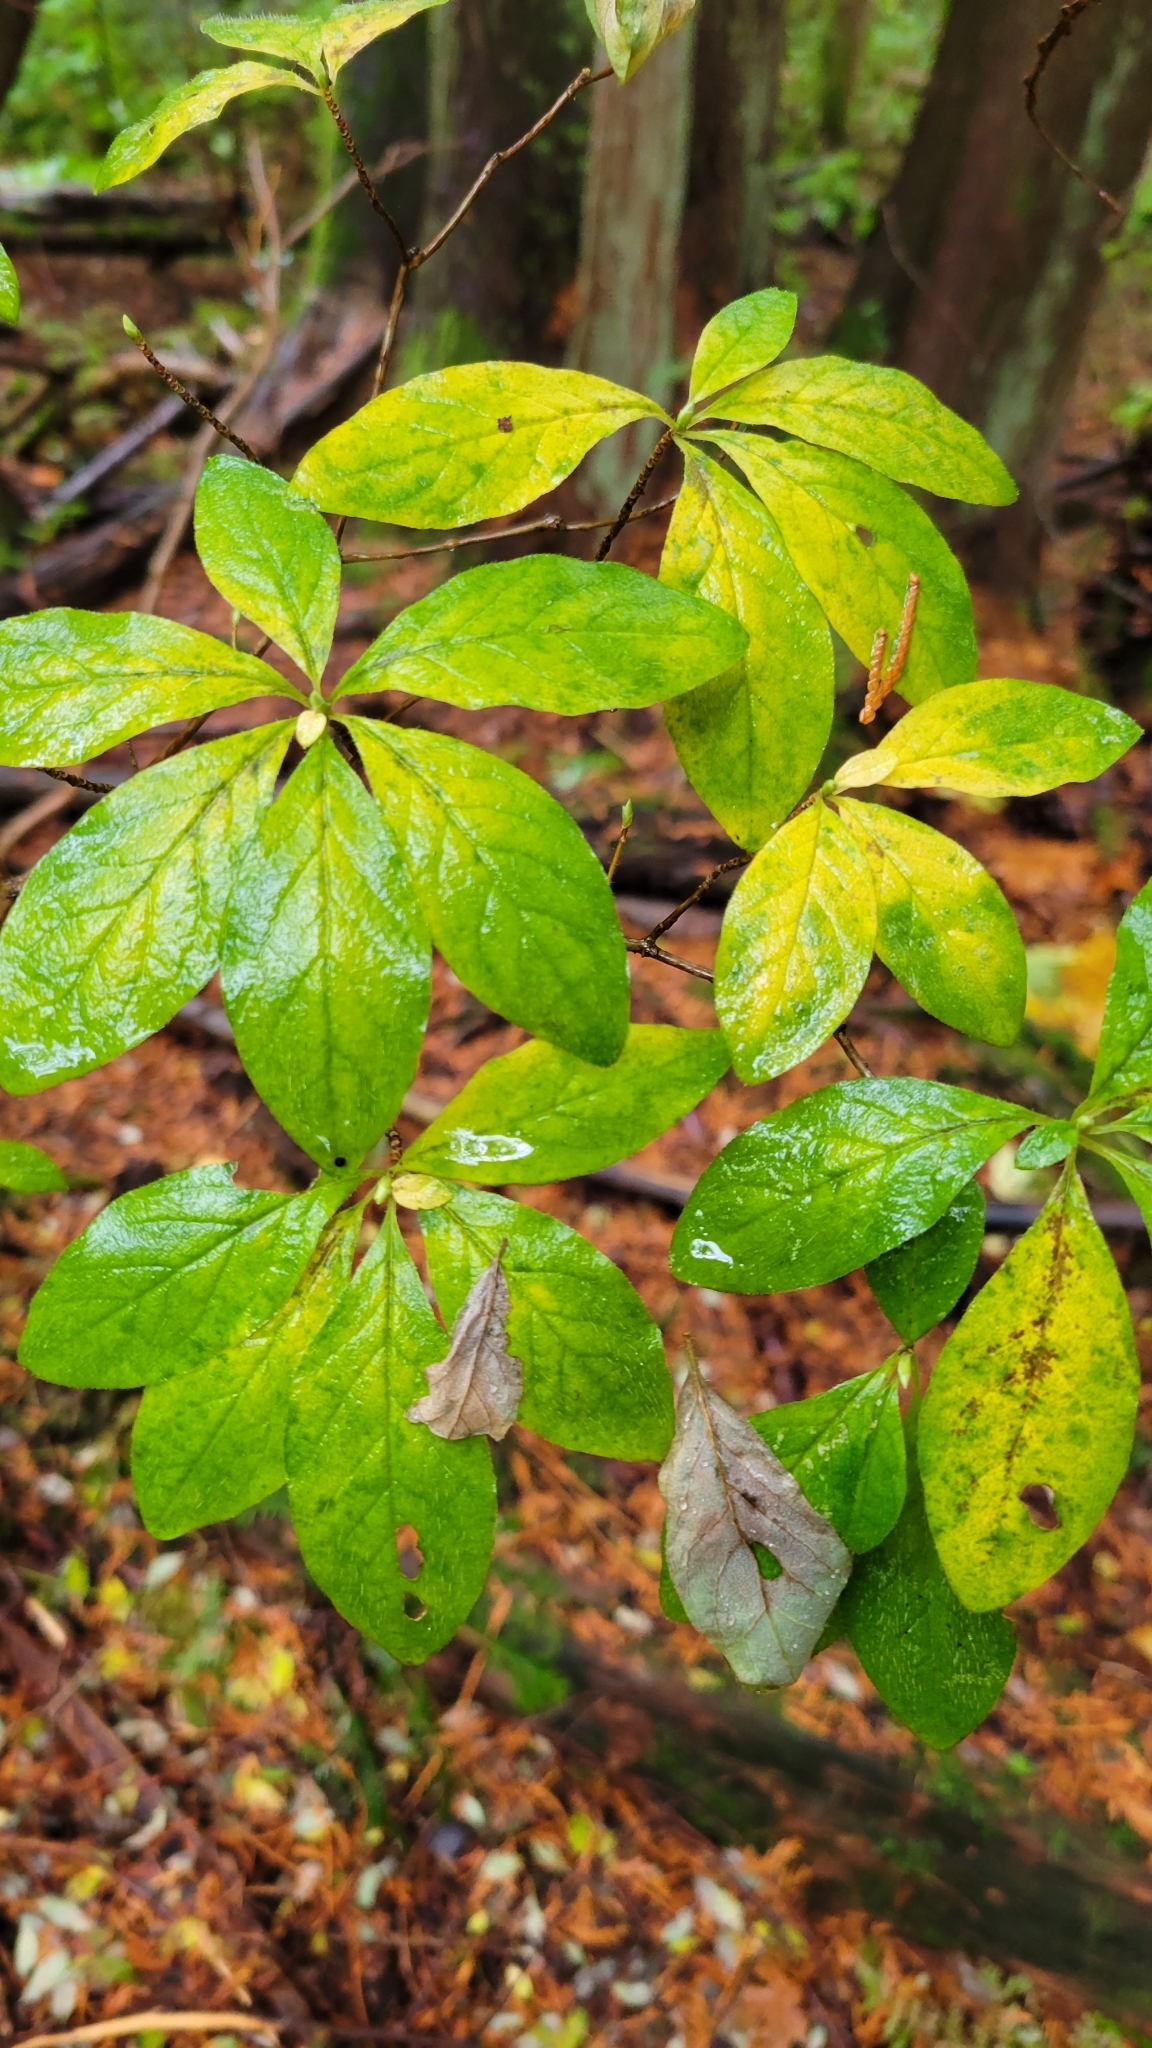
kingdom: Plantae
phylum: Tracheophyta
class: Magnoliopsida
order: Ericales
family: Ericaceae
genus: Rhododendron
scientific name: Rhododendron menziesii
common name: Pacific menziesia
